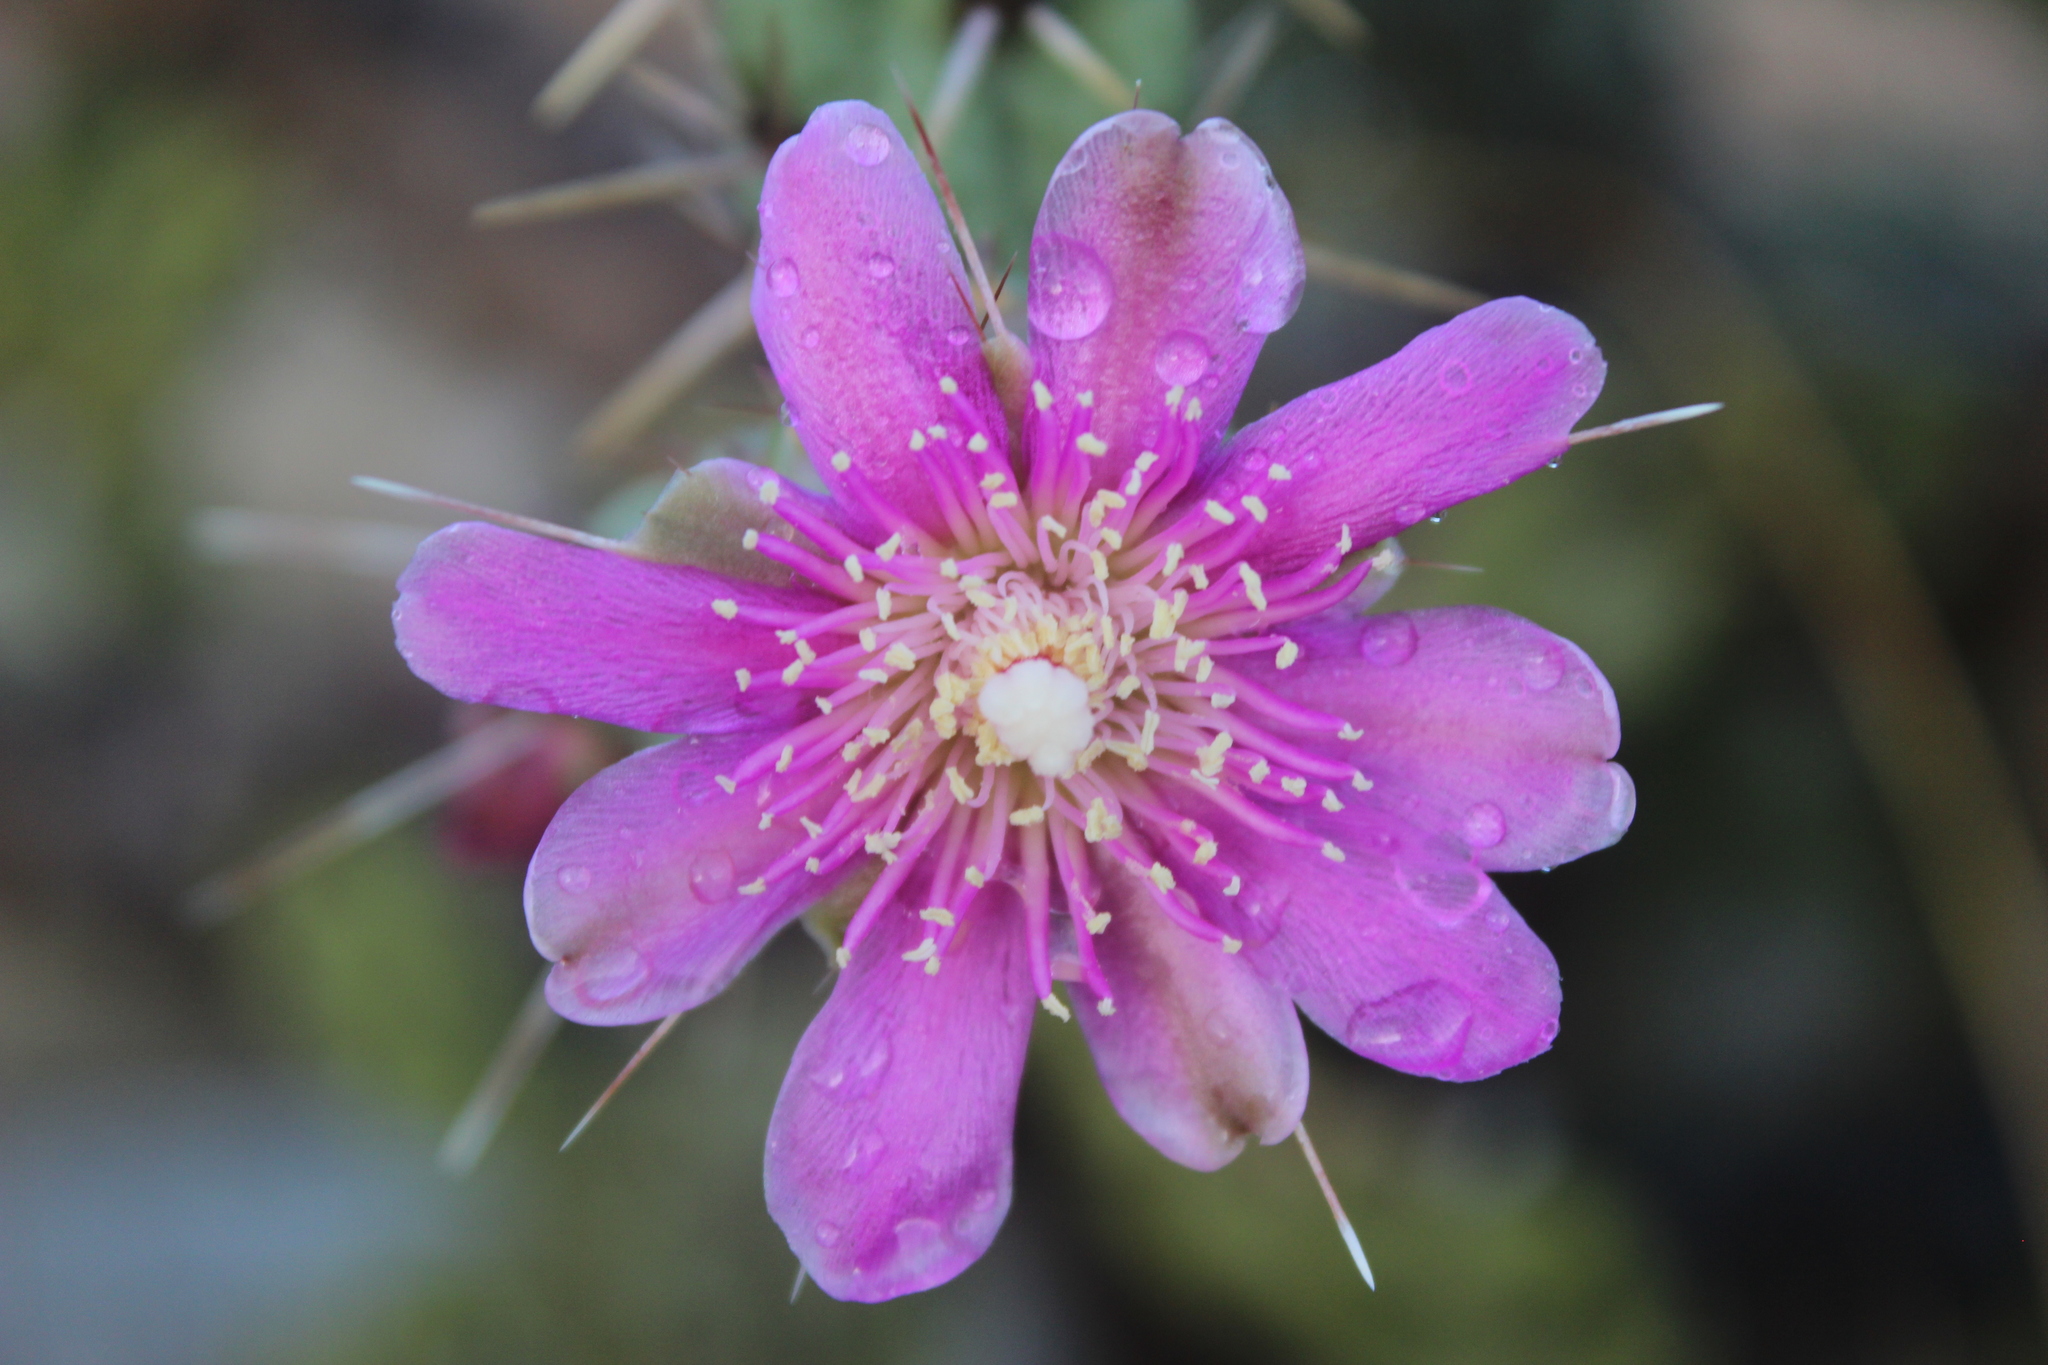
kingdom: Plantae
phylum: Tracheophyta
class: Magnoliopsida
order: Caryophyllales
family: Cactaceae
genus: Cylindropuntia
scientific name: Cylindropuntia cholla
